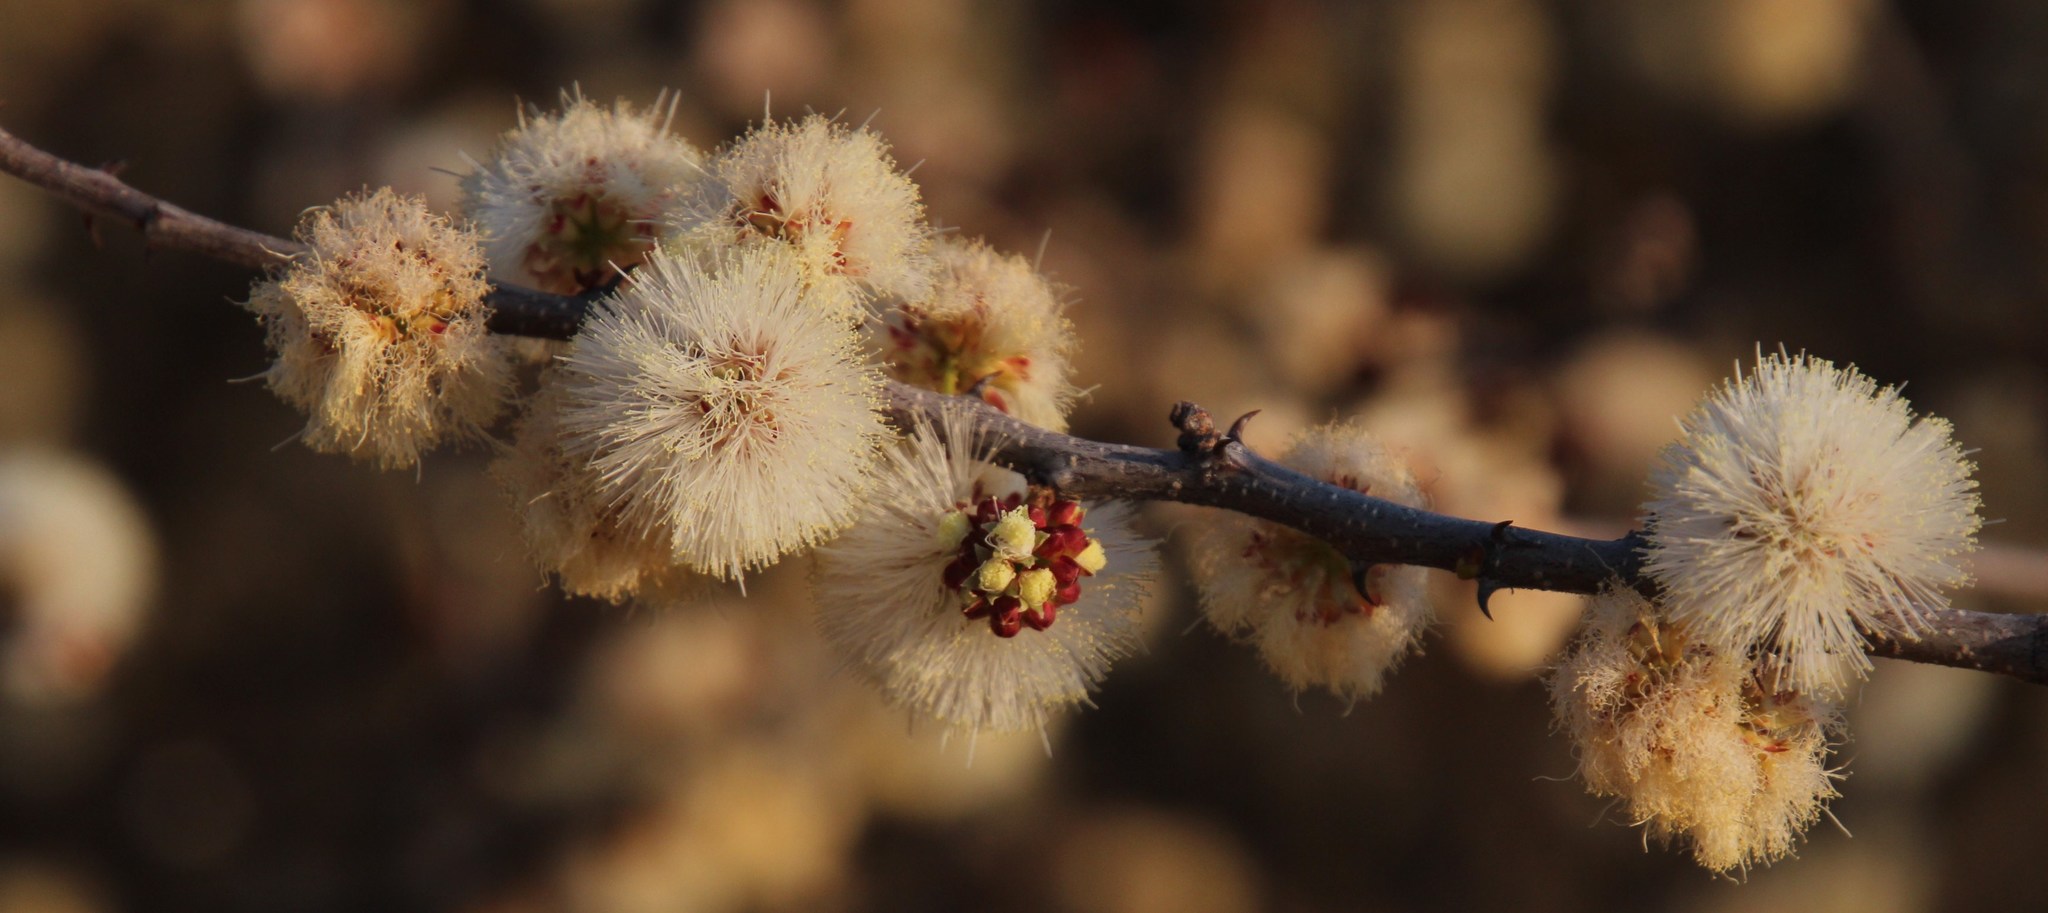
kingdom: Plantae
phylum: Tracheophyta
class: Magnoliopsida
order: Fabales
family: Fabaceae
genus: Senegalia
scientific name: Senegalia mellifera
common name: Hookthorn
